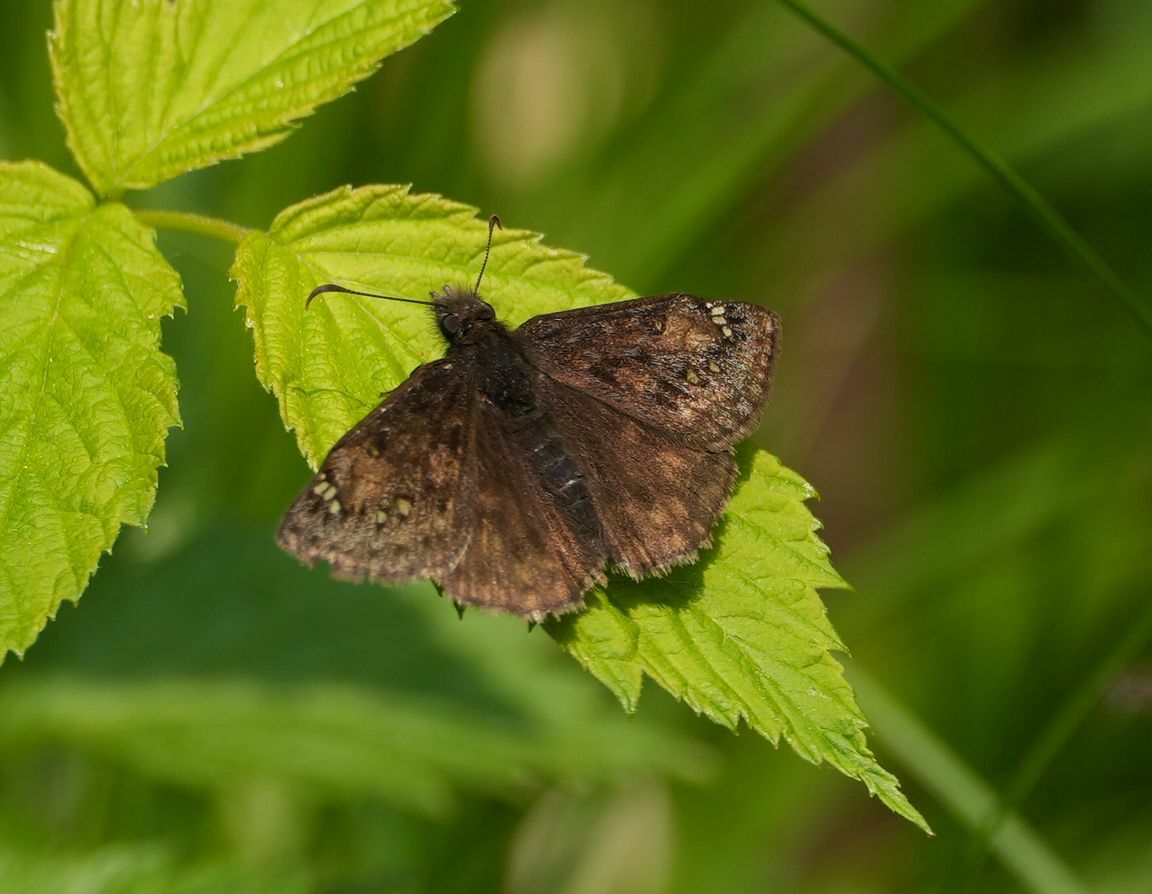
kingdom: Animalia
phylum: Arthropoda
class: Insecta
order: Lepidoptera
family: Hesperiidae
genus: Erynnis
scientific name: Erynnis juvenalis
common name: Juvenal's duskywing
